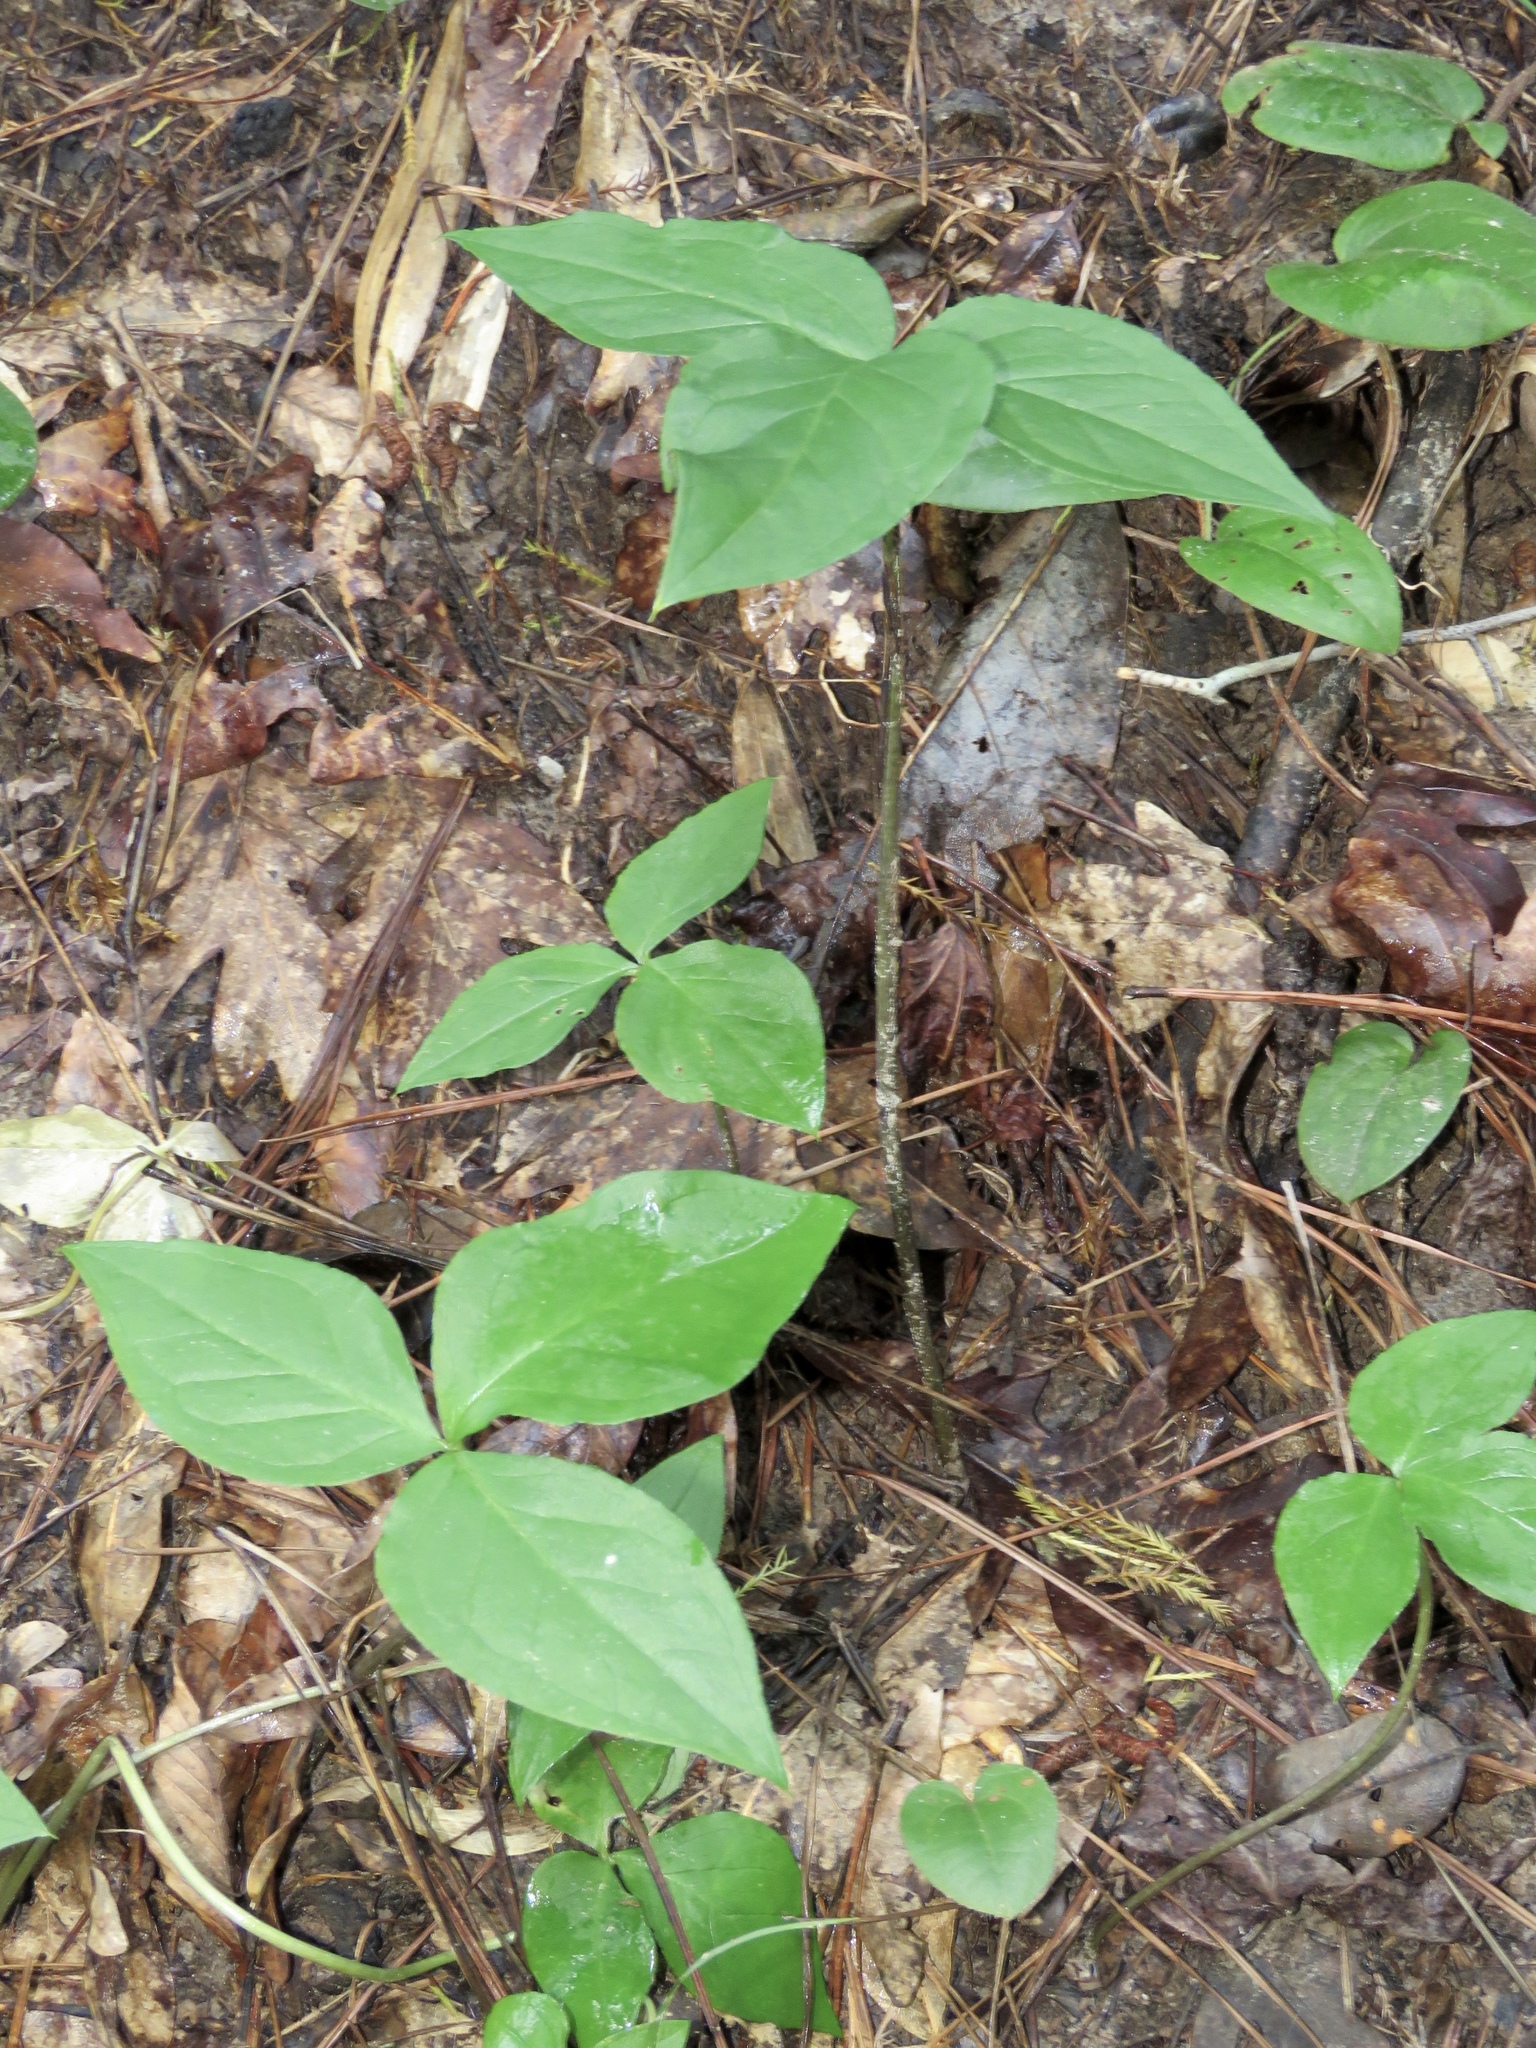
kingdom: Plantae
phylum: Tracheophyta
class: Liliopsida
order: Alismatales
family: Araceae
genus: Arisaema
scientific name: Arisaema triphyllum
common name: Jack-in-the-pulpit
